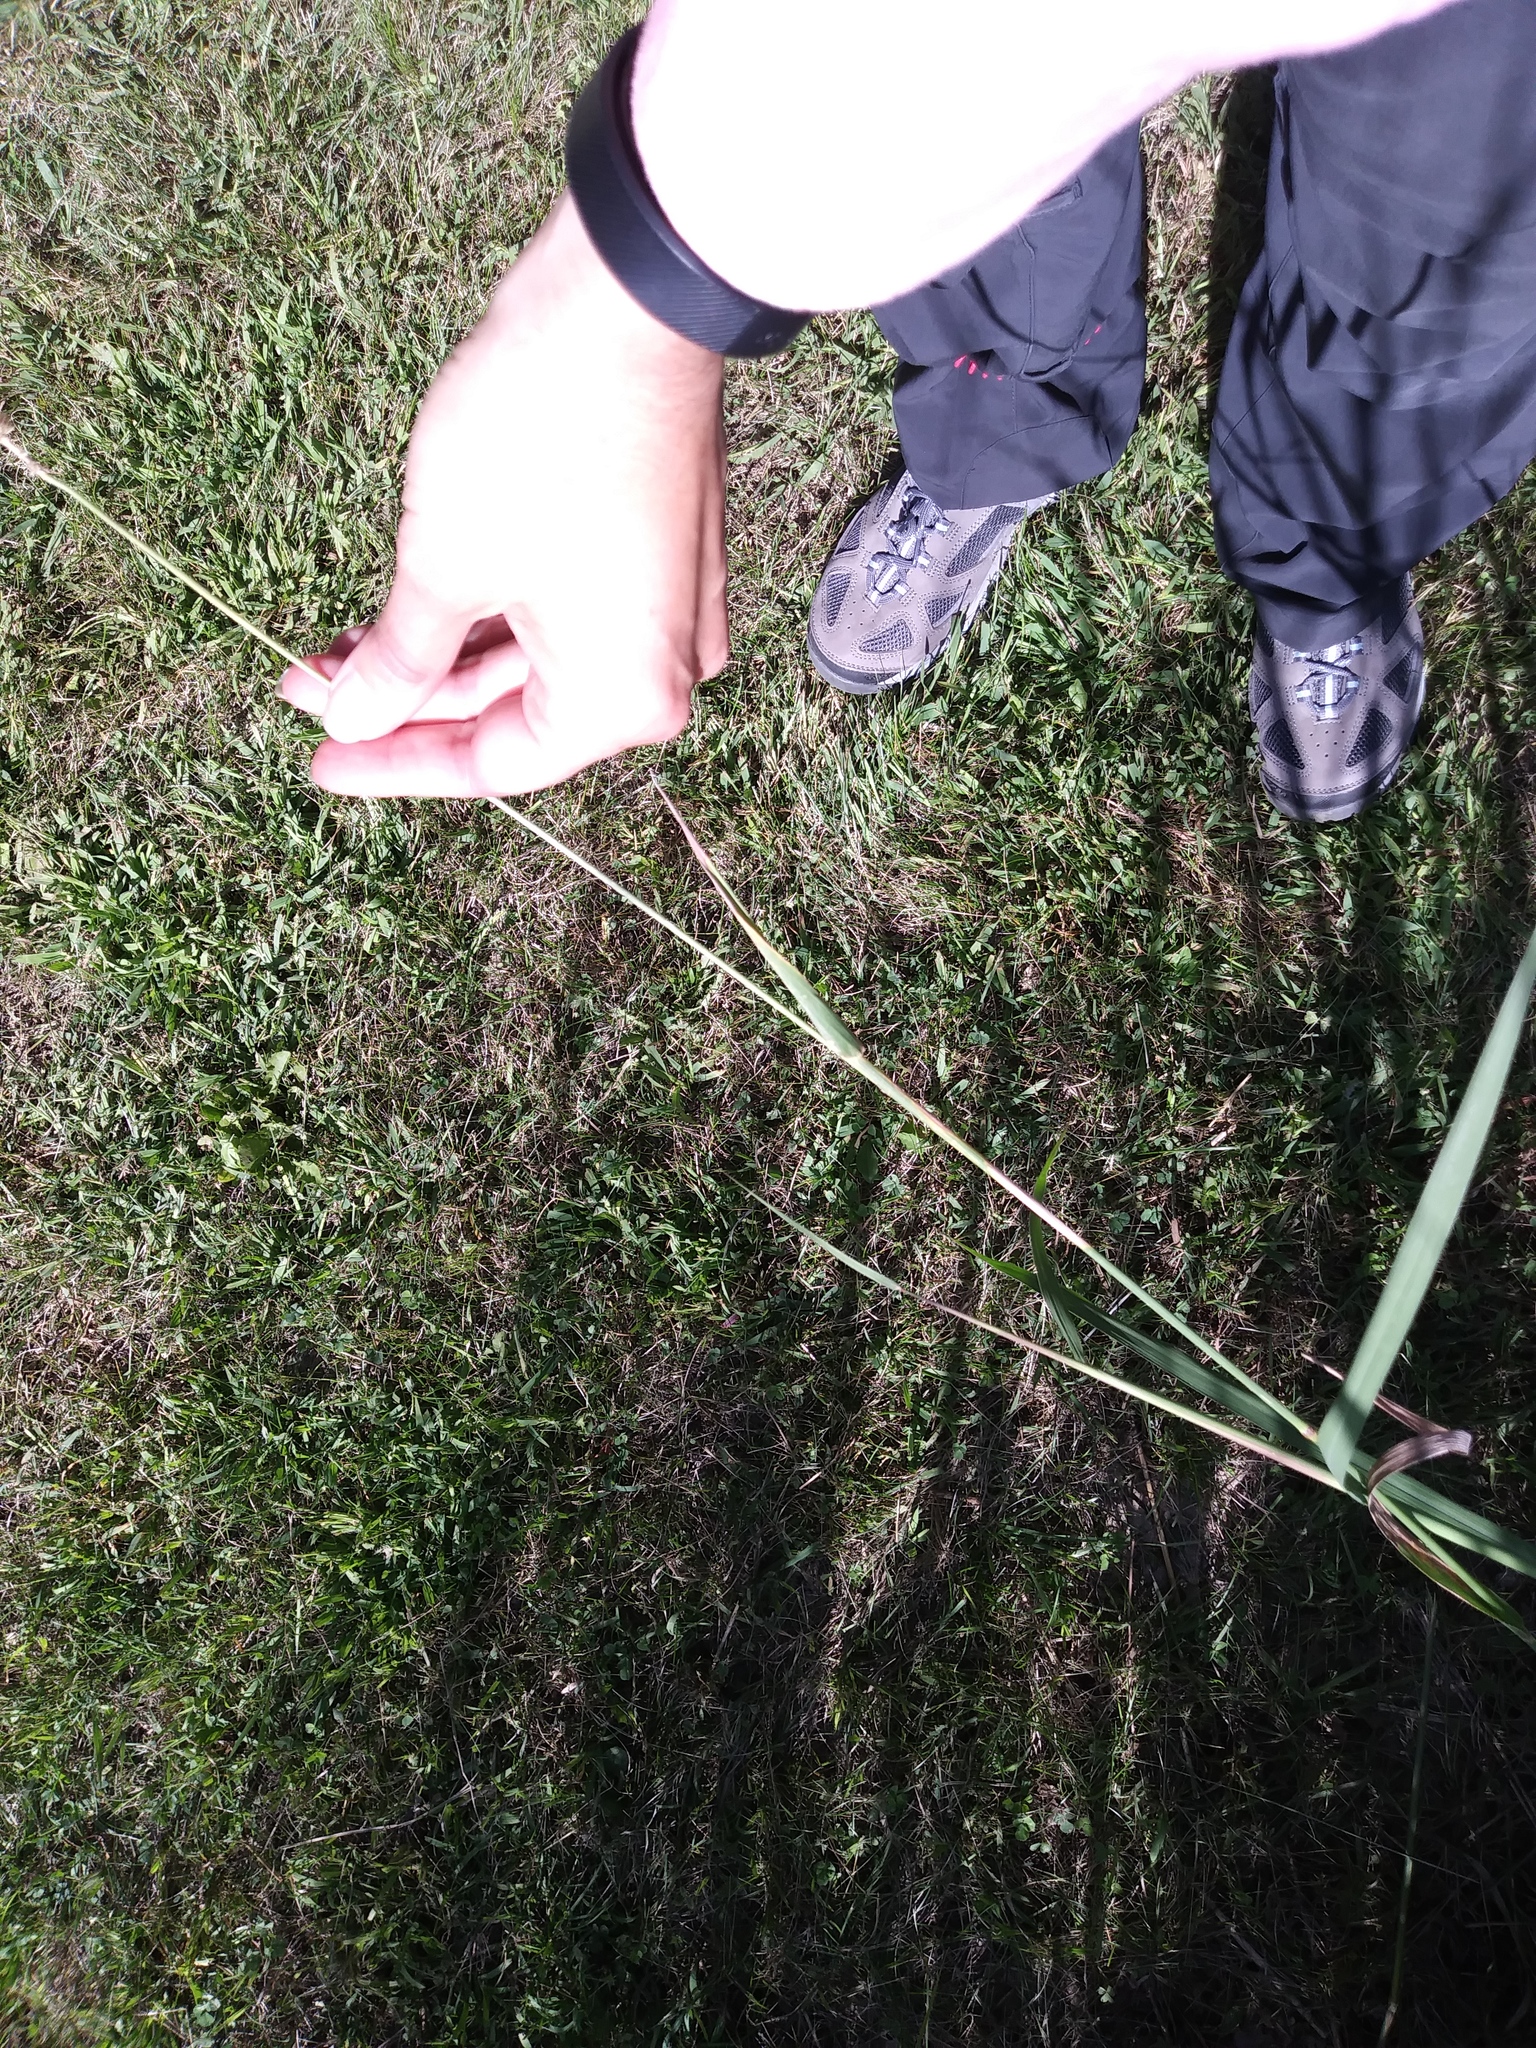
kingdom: Plantae
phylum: Tracheophyta
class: Liliopsida
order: Poales
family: Poaceae
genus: Phleum
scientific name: Phleum pratense
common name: Timothy grass
